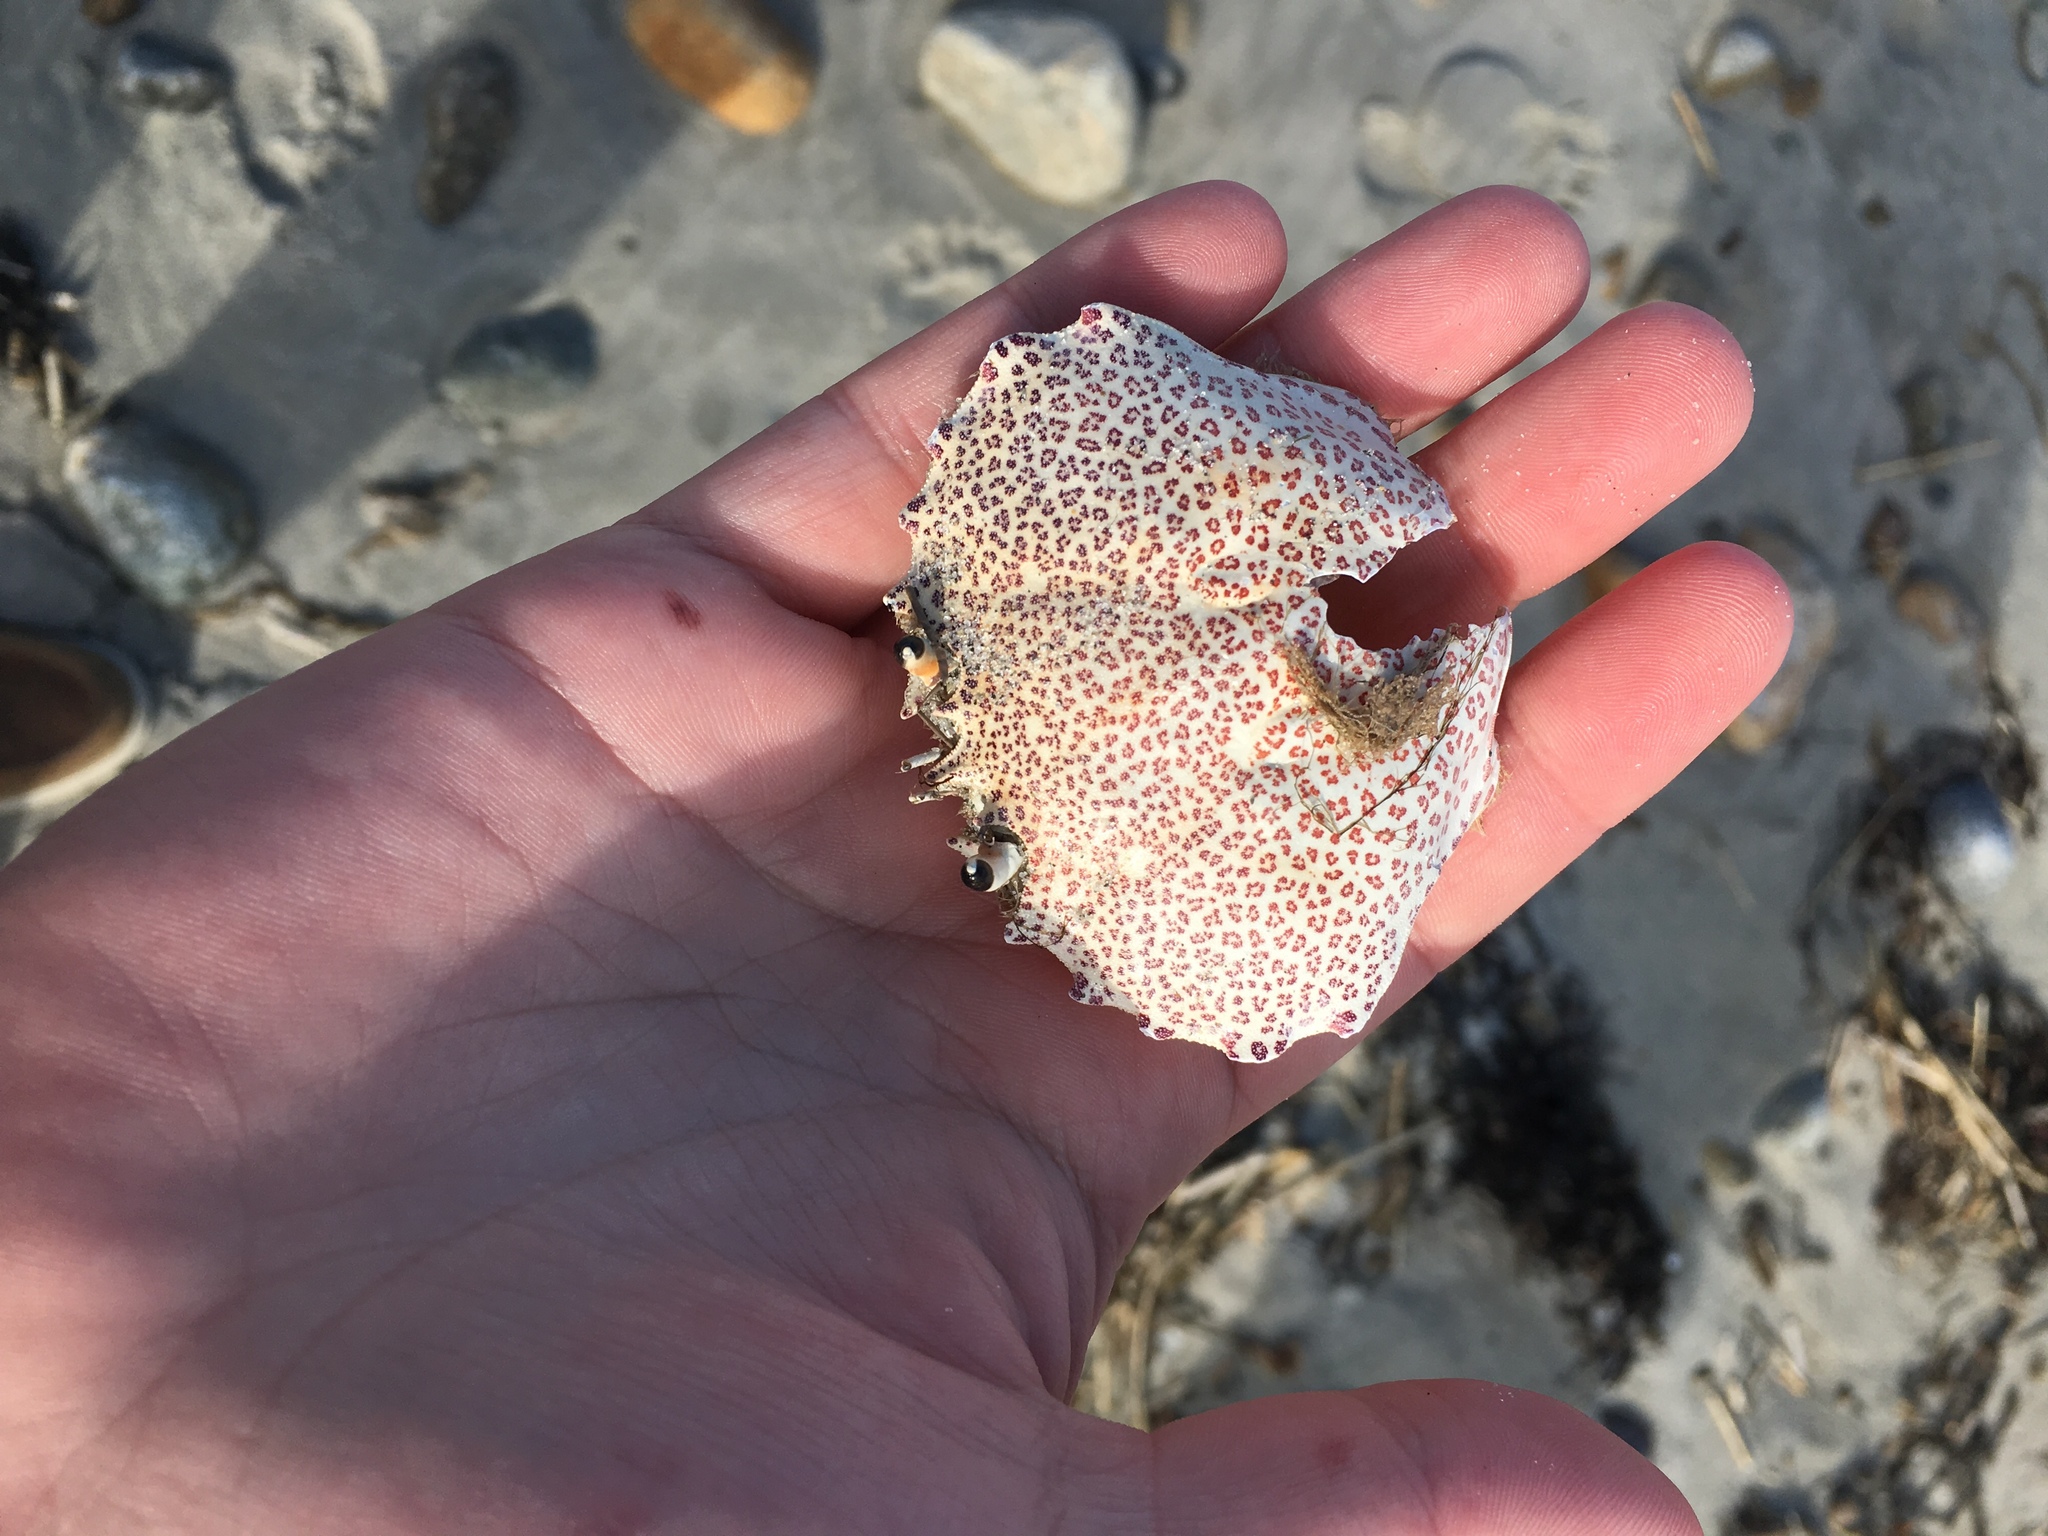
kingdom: Animalia
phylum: Arthropoda
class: Malacostraca
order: Decapoda
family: Ovalipidae
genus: Ovalipes
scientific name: Ovalipes ocellatus
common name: Lady crab
